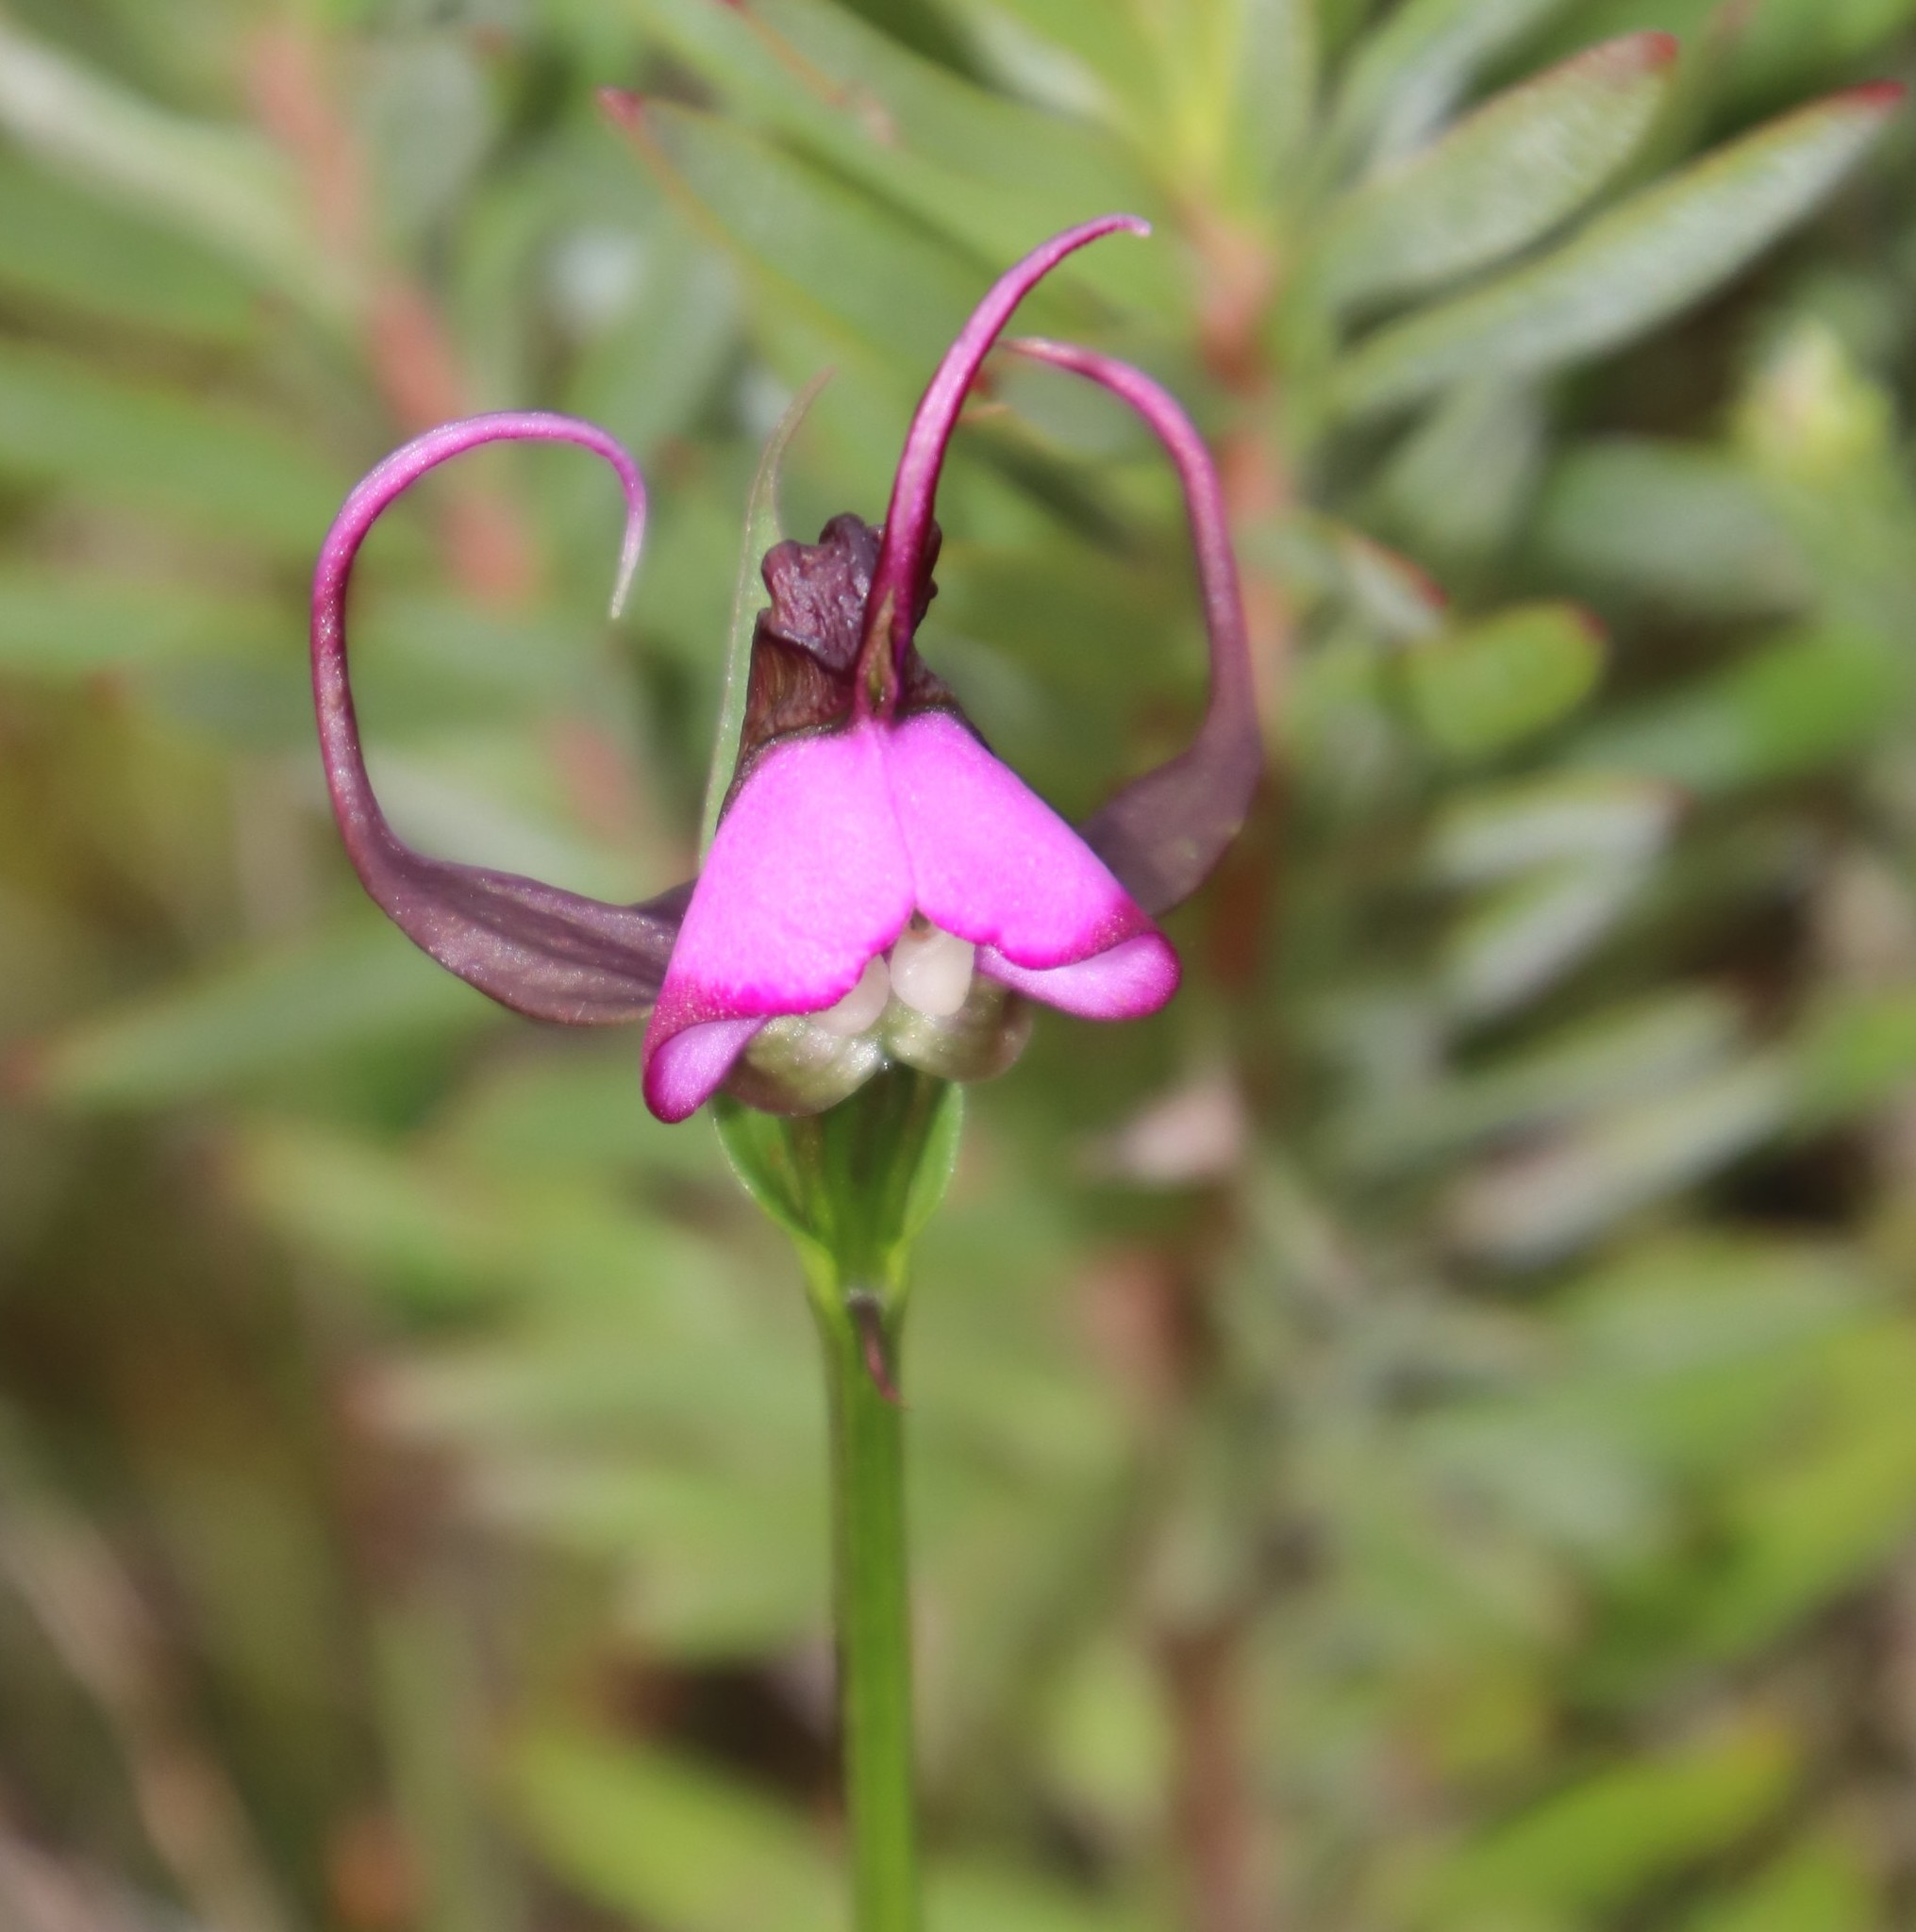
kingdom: Plantae
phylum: Tracheophyta
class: Liliopsida
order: Asparagales
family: Orchidaceae
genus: Disperis
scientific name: Disperis capensis
